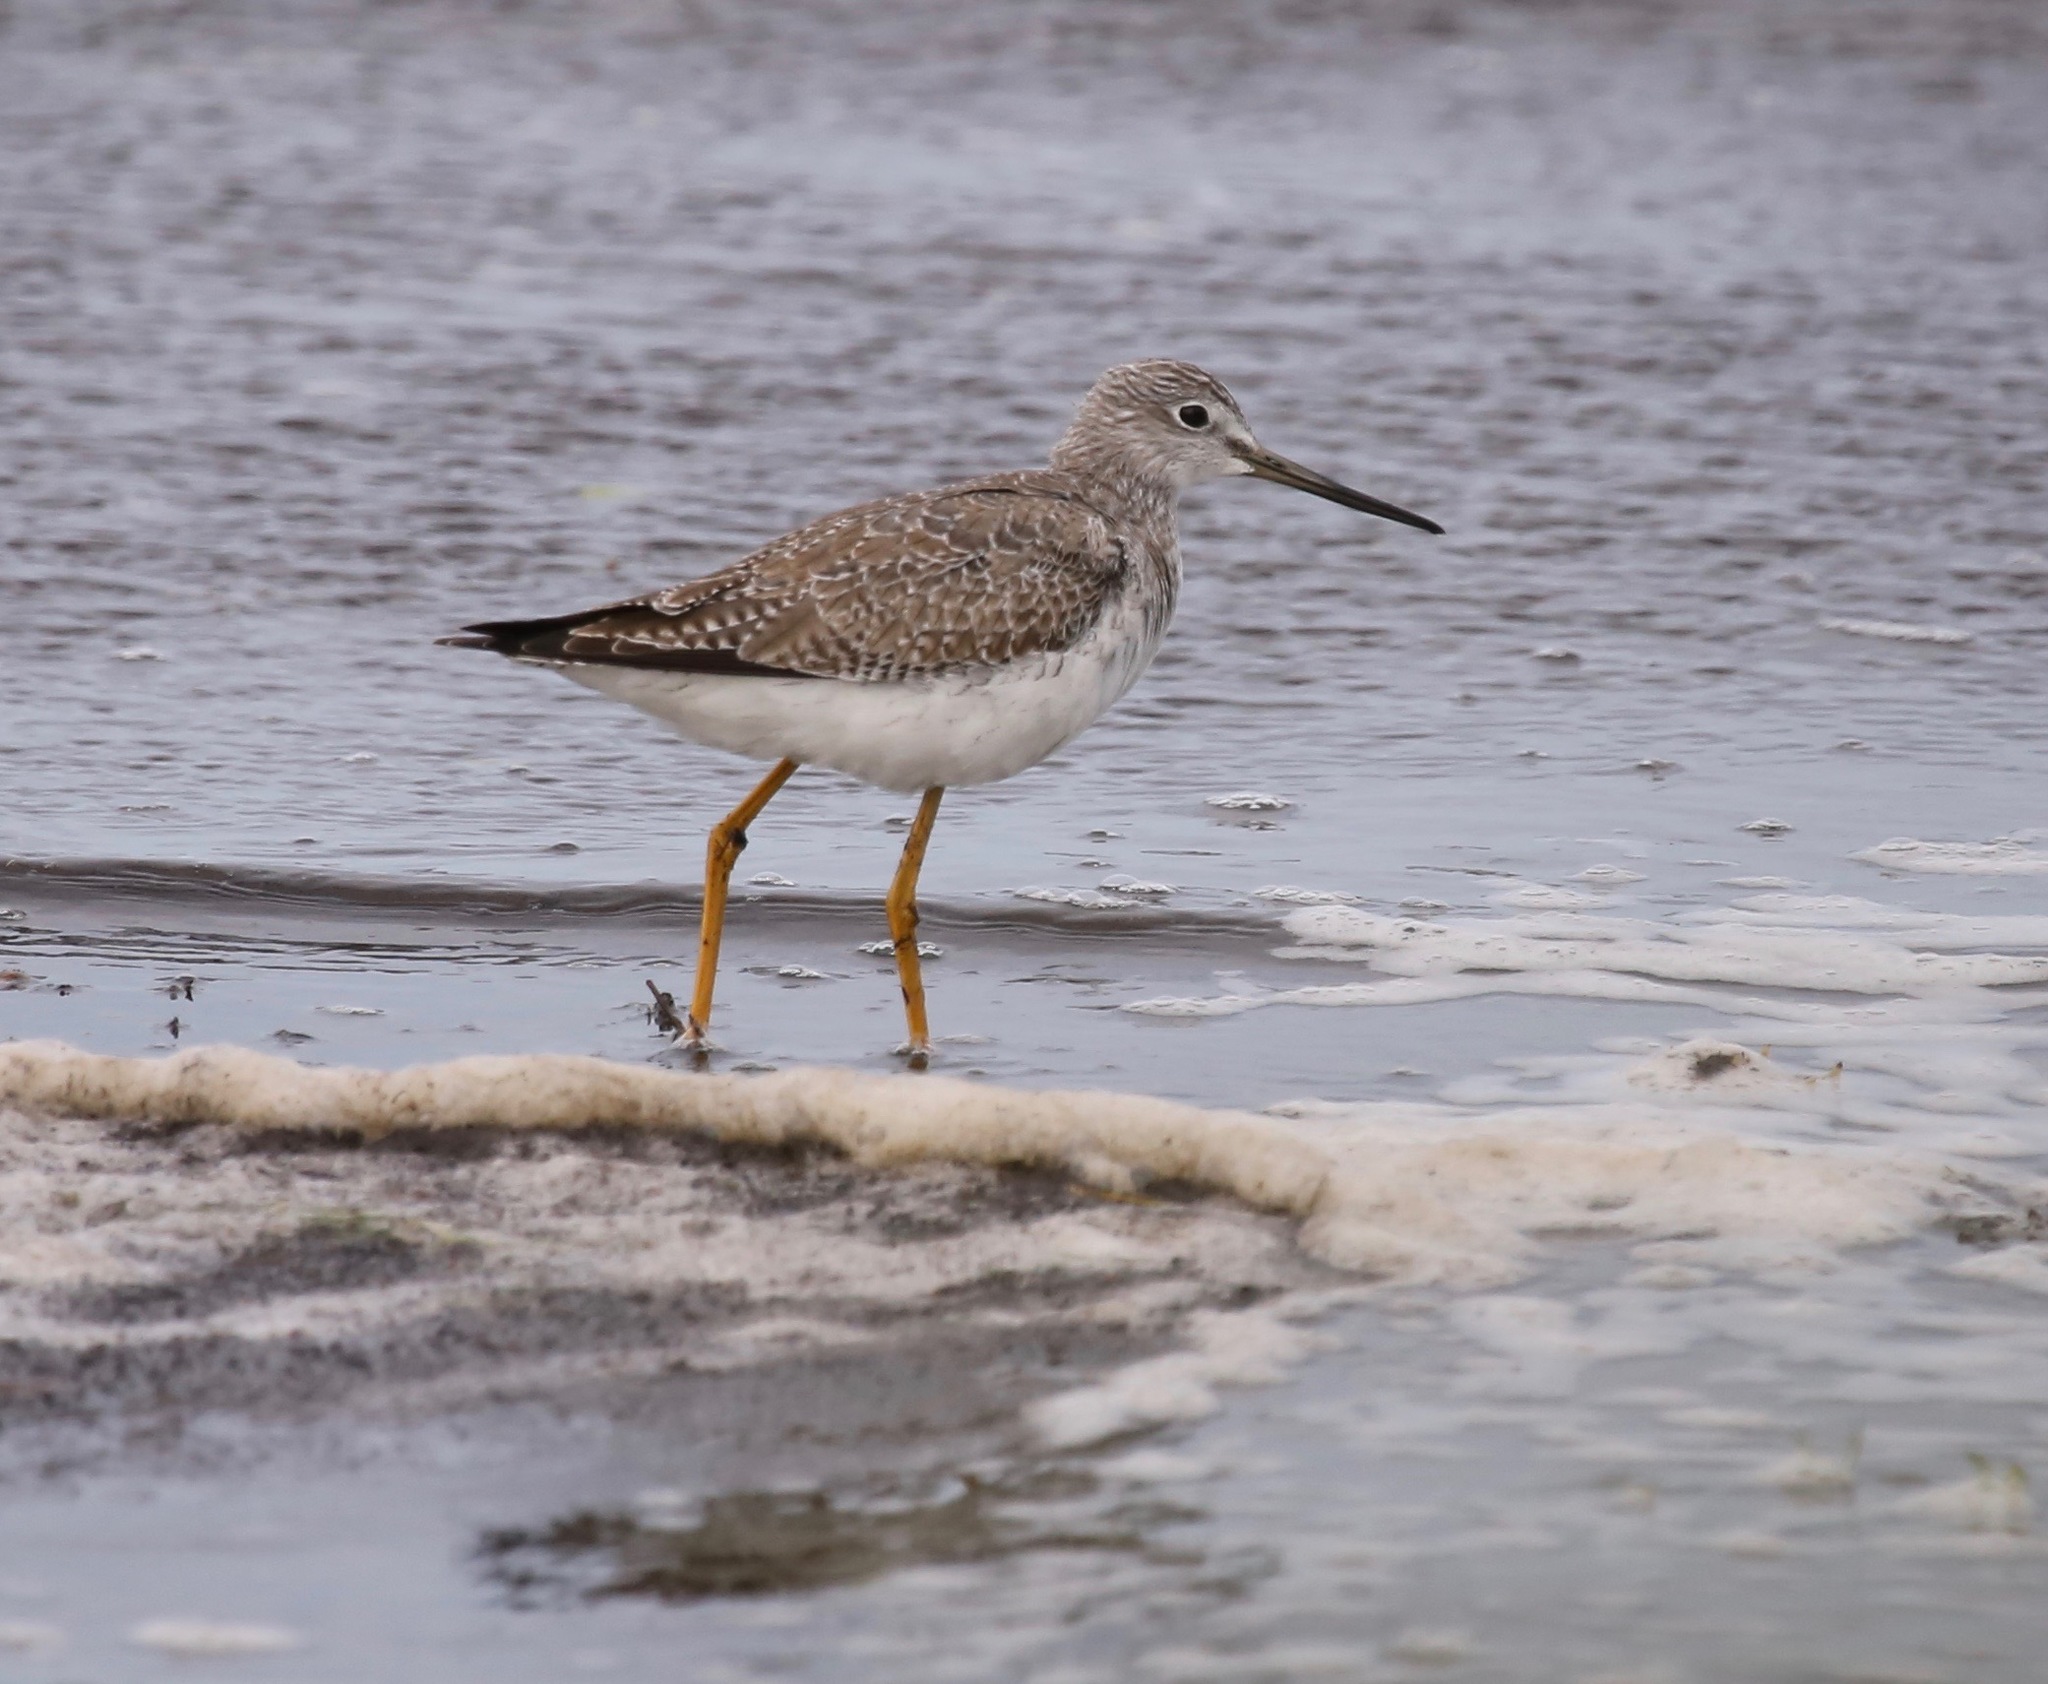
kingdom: Animalia
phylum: Chordata
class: Aves
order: Charadriiformes
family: Scolopacidae
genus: Tringa
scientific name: Tringa melanoleuca
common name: Greater yellowlegs
